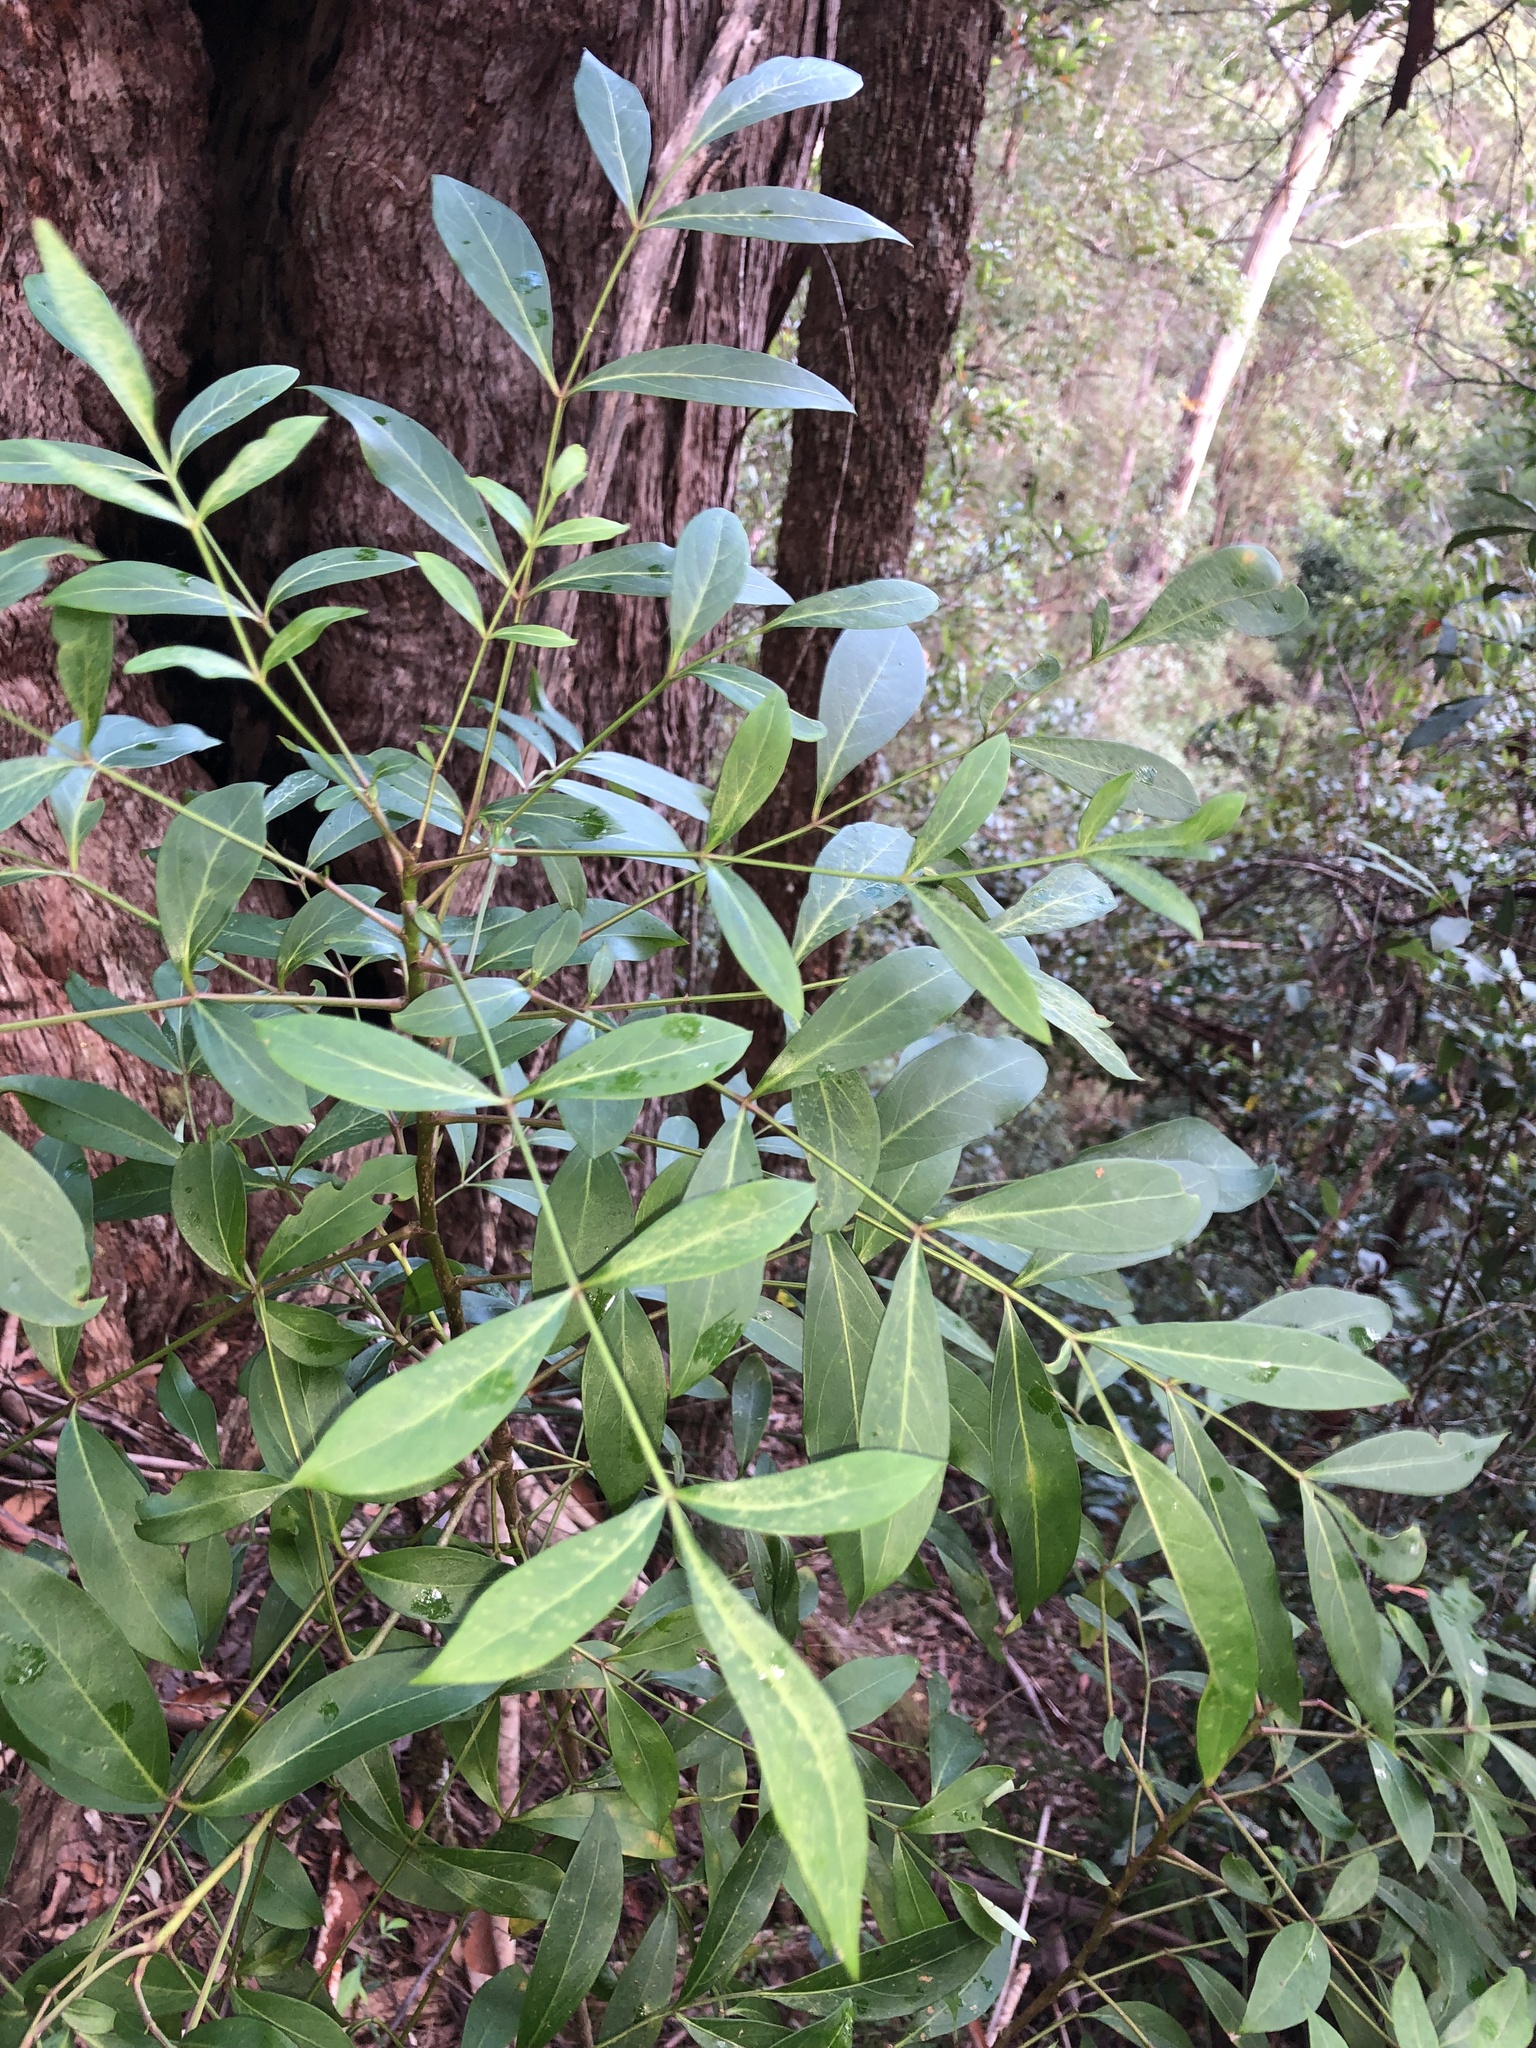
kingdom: Plantae
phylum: Tracheophyta
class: Magnoliopsida
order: Apiales
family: Araliaceae
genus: Polyscias
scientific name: Polyscias sambucifolia
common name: Elderberry-ash
